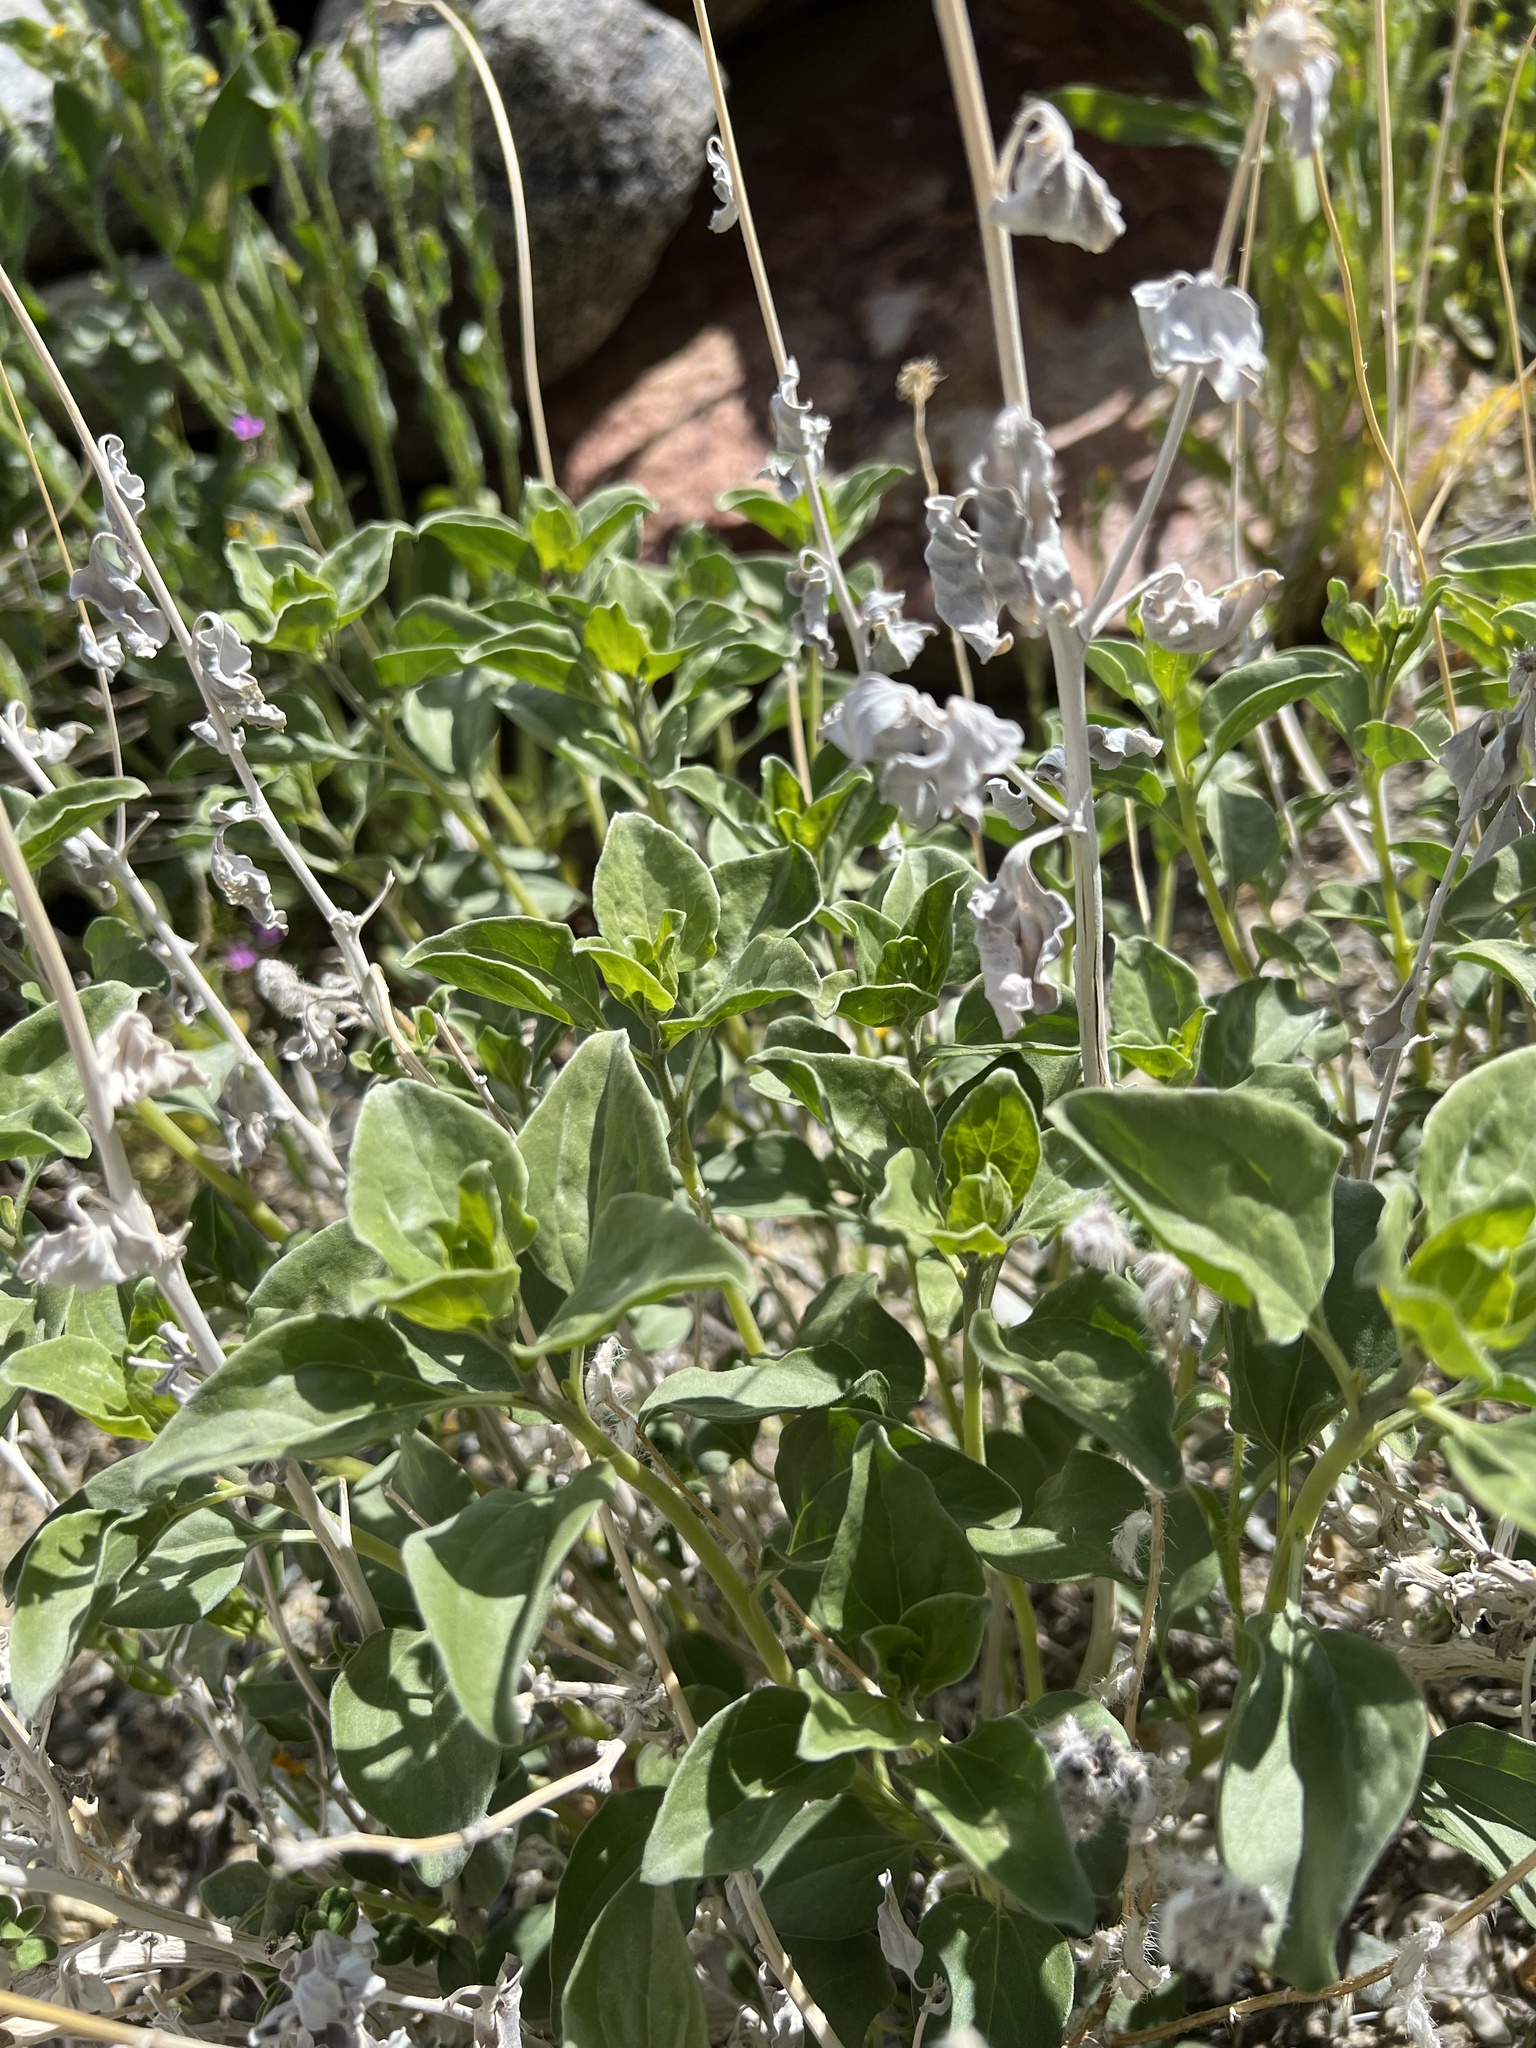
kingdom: Plantae
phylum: Tracheophyta
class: Magnoliopsida
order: Asterales
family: Asteraceae
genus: Encelia
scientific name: Encelia actoni
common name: Acton encelia
